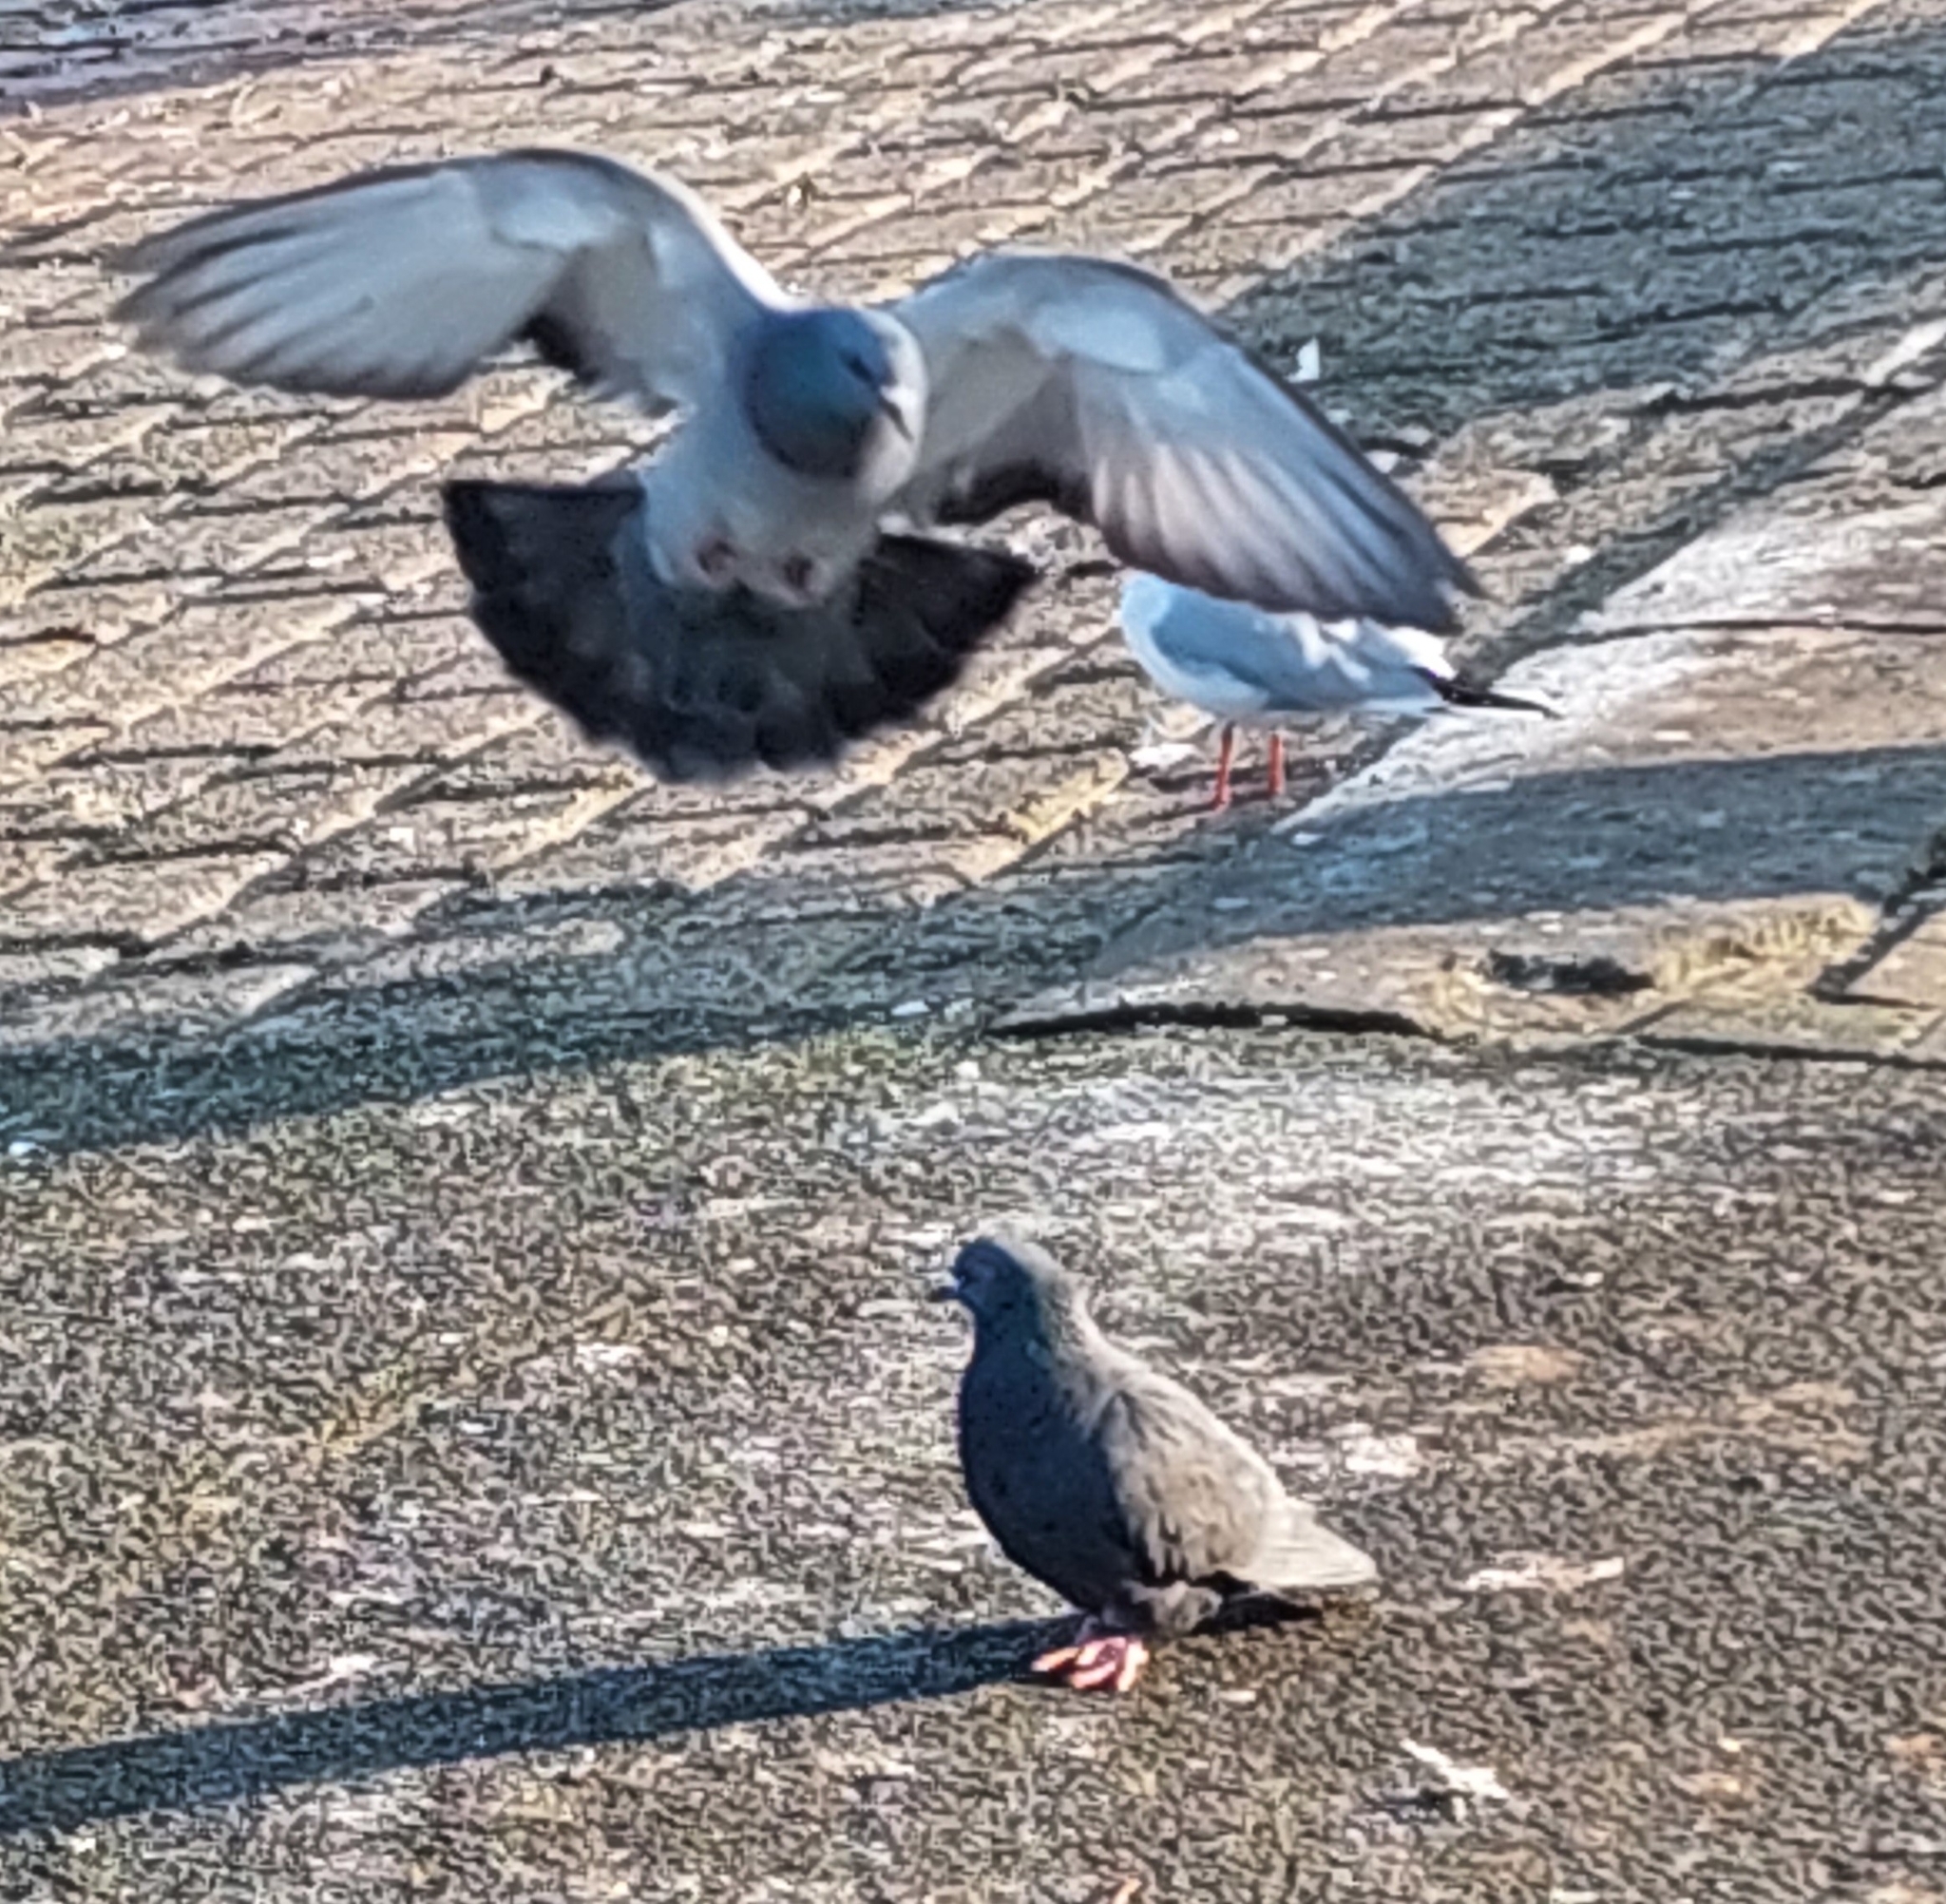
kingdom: Animalia
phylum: Chordata
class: Aves
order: Columbiformes
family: Columbidae
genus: Columba
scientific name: Columba livia
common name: Rock pigeon
